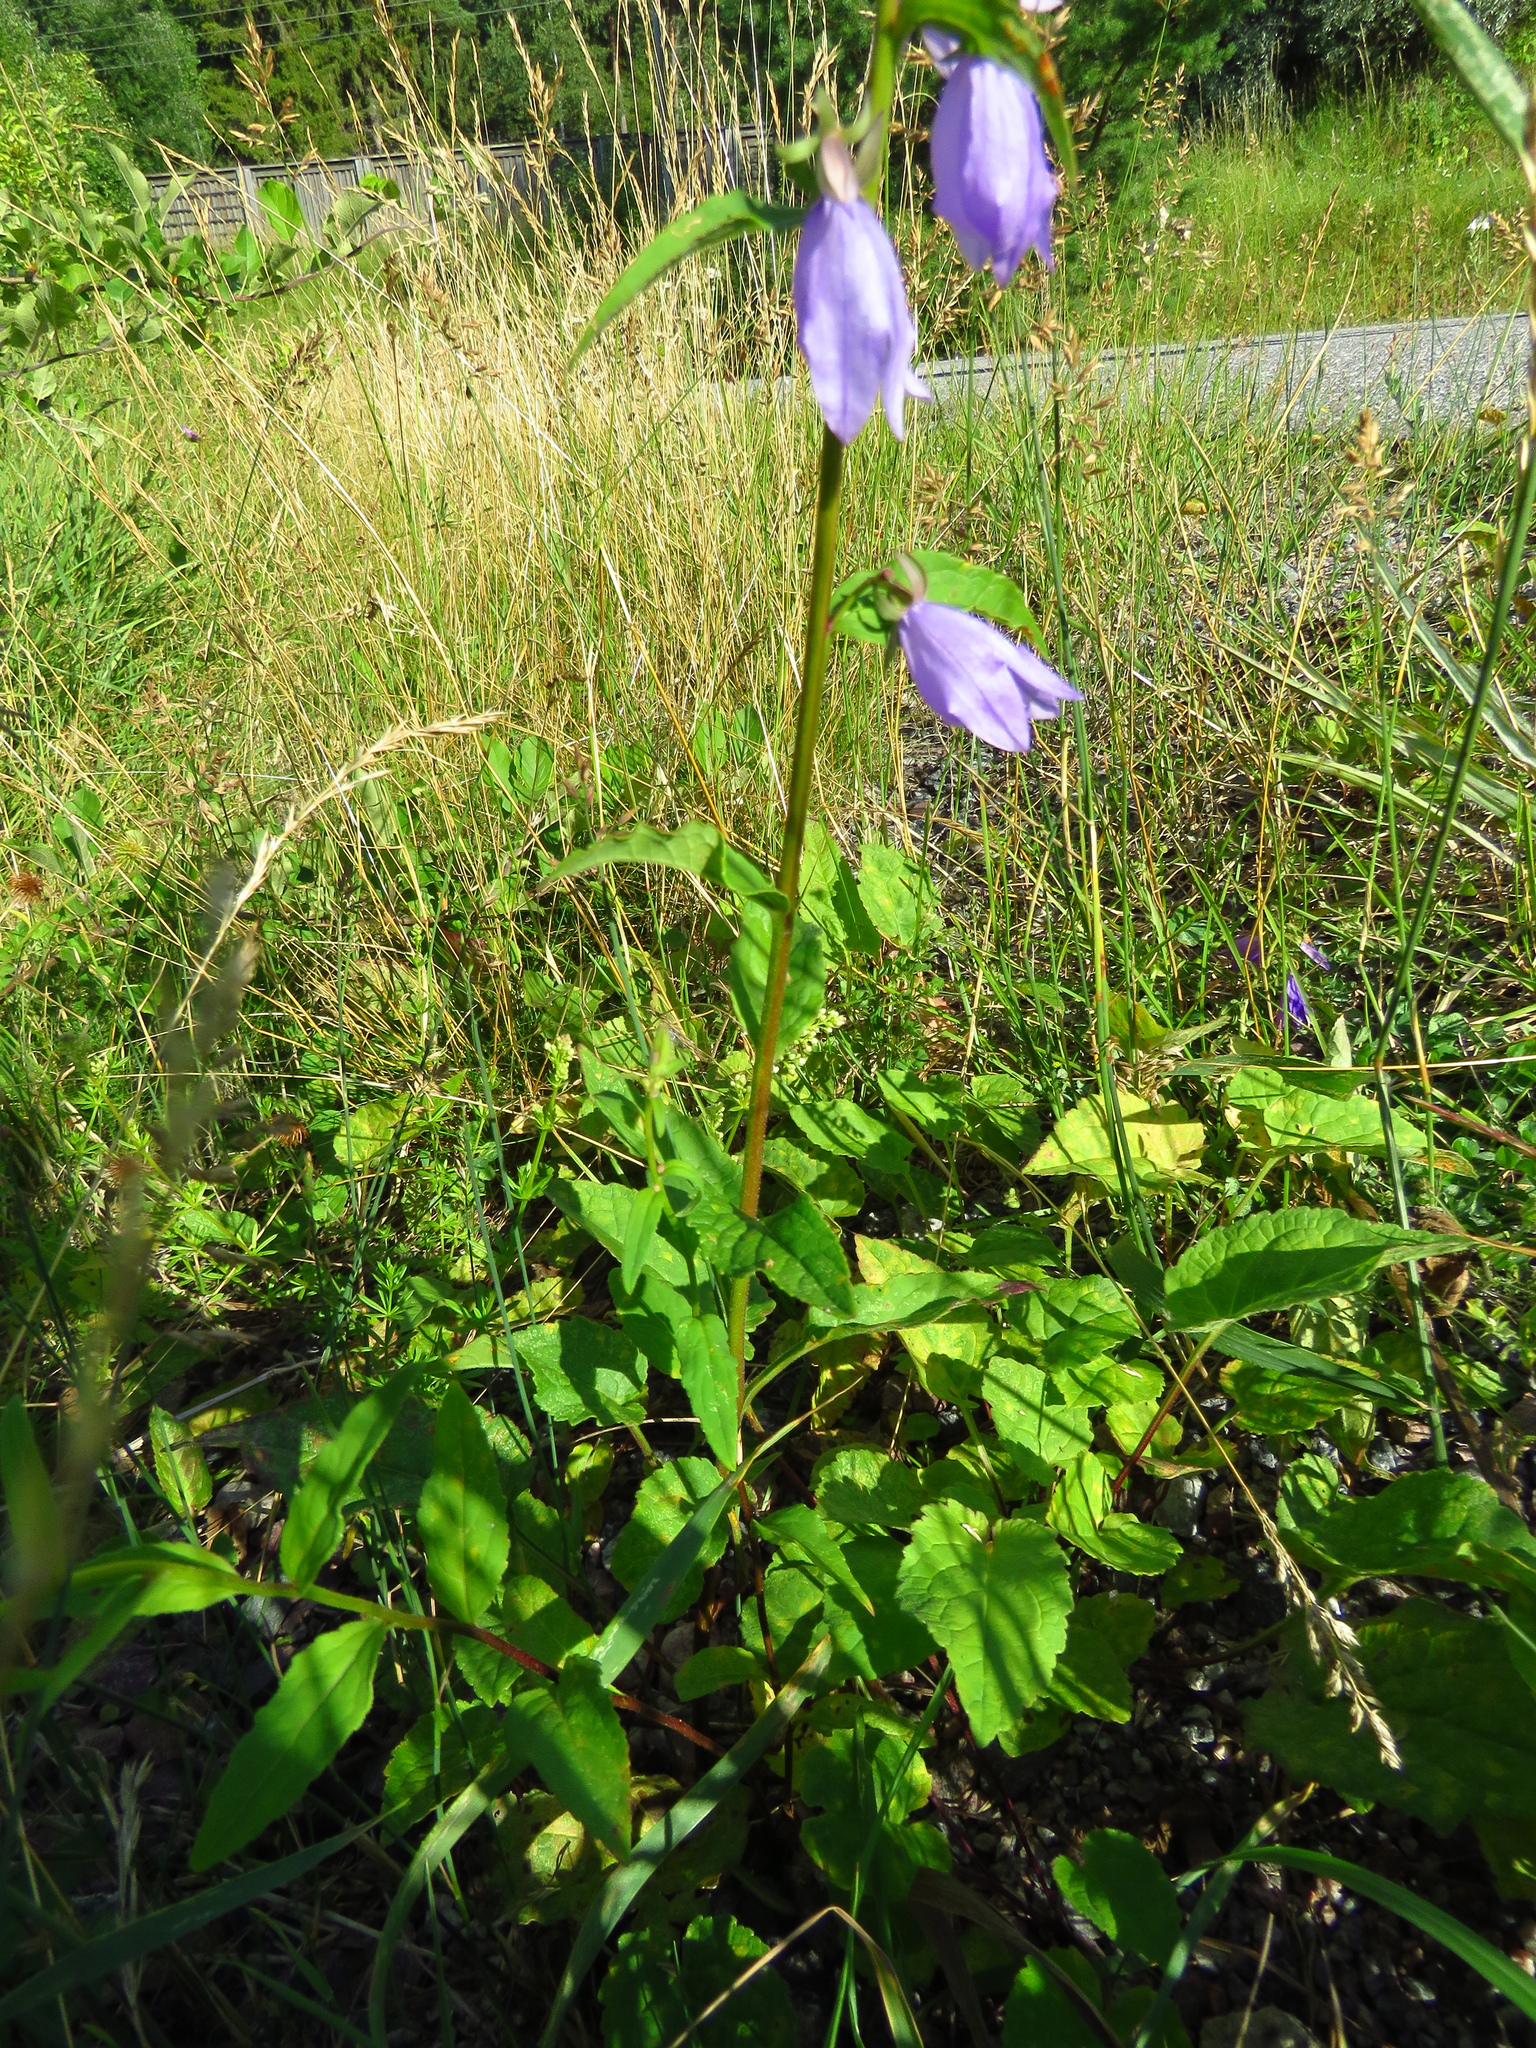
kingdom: Plantae
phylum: Tracheophyta
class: Magnoliopsida
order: Asterales
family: Campanulaceae
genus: Campanula
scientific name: Campanula rapunculoides
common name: Creeping bellflower
